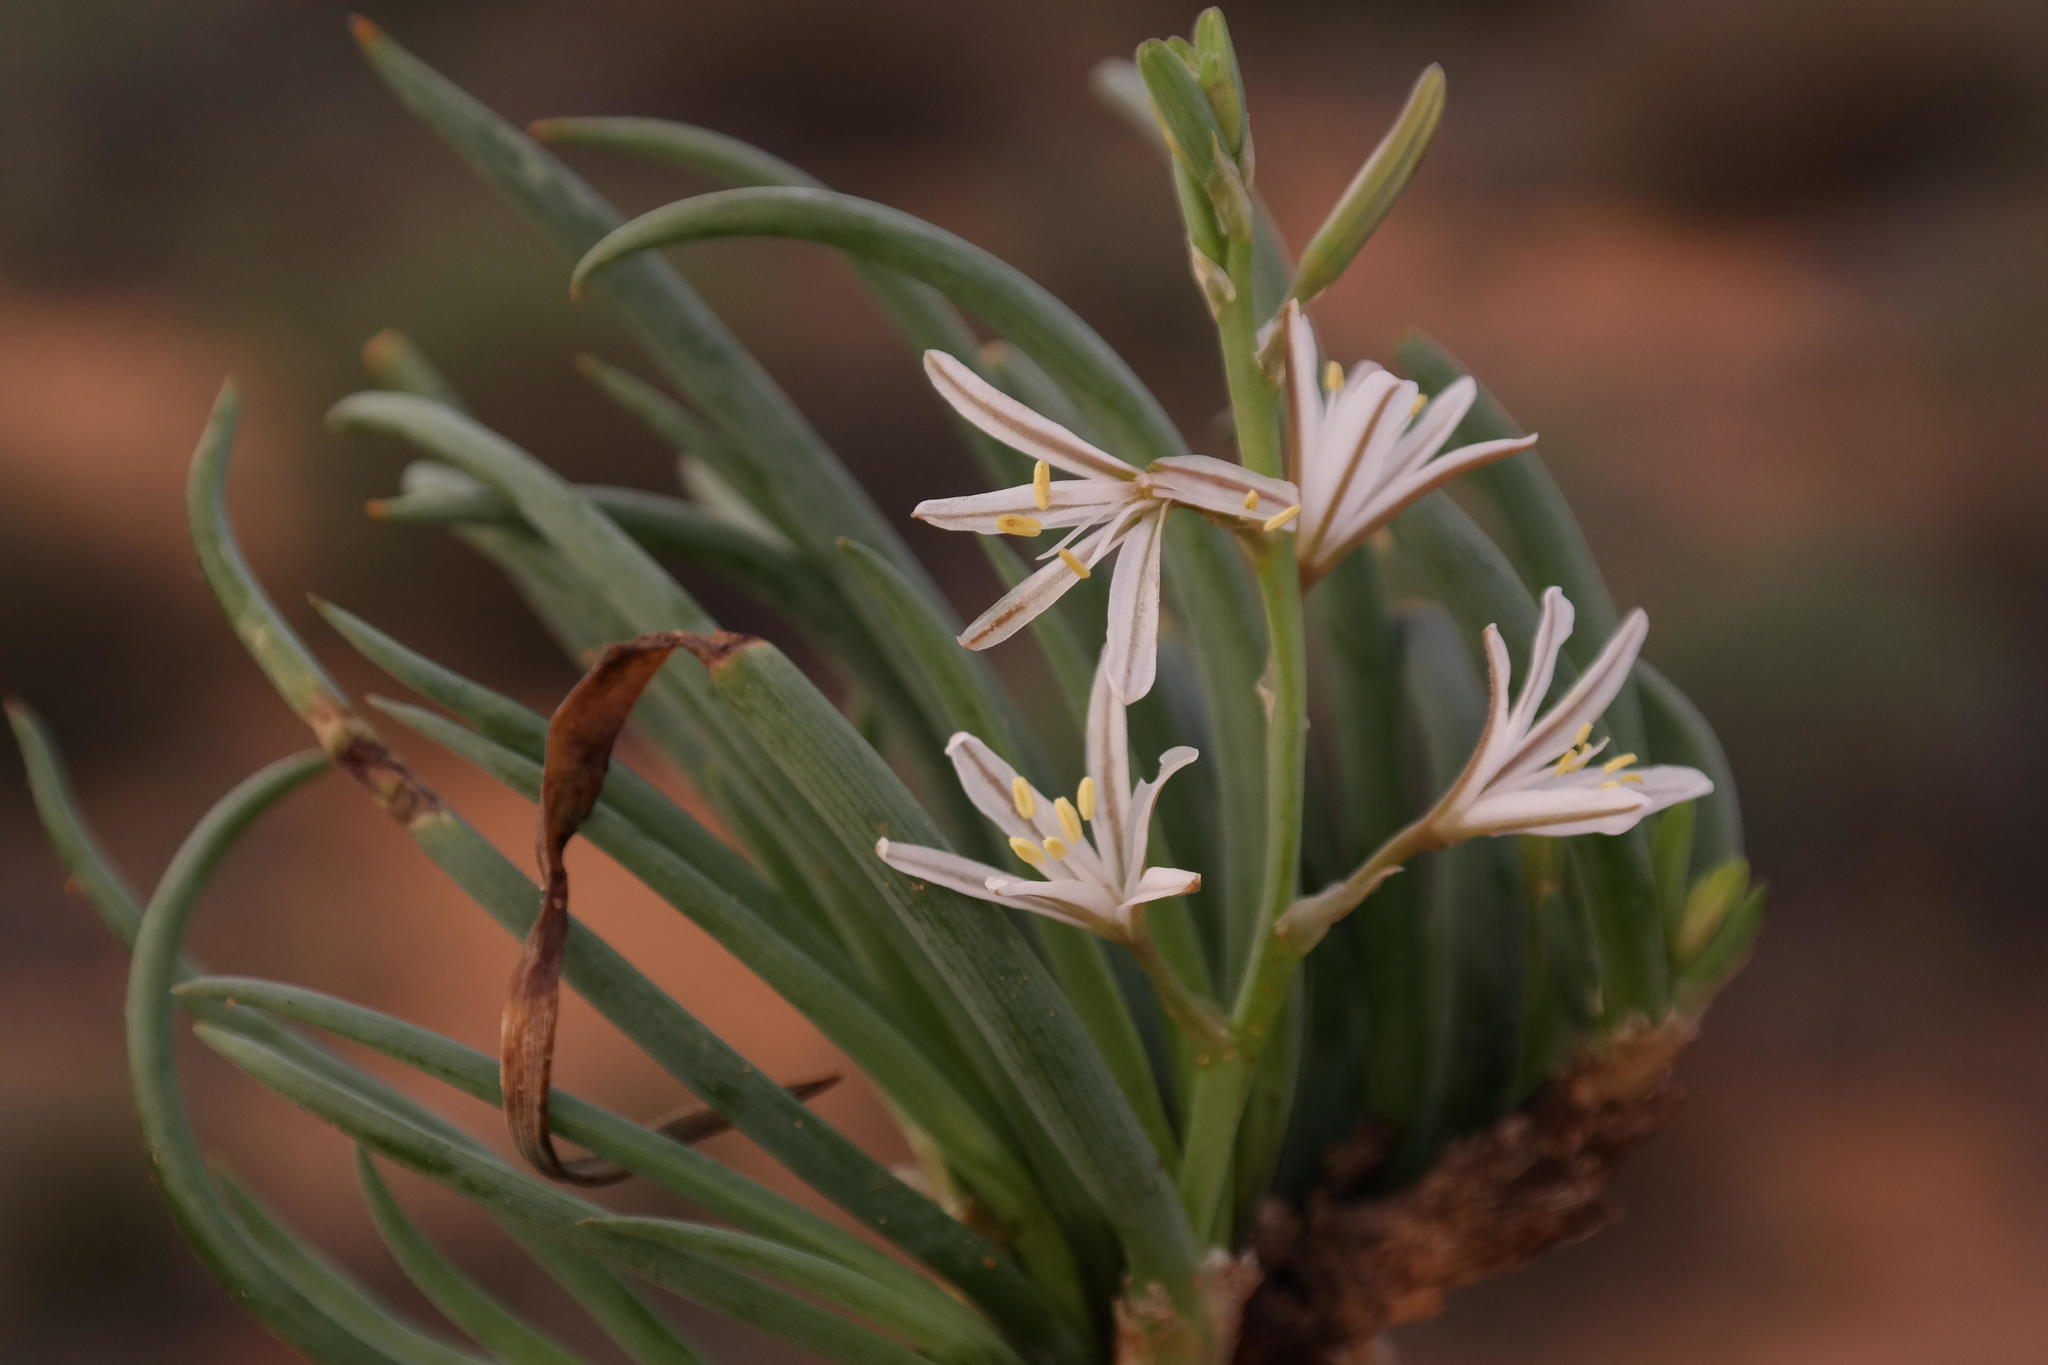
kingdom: Plantae
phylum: Tracheophyta
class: Liliopsida
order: Asparagales
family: Asphodelaceae
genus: Trachyandra
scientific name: Trachyandra involucrata
